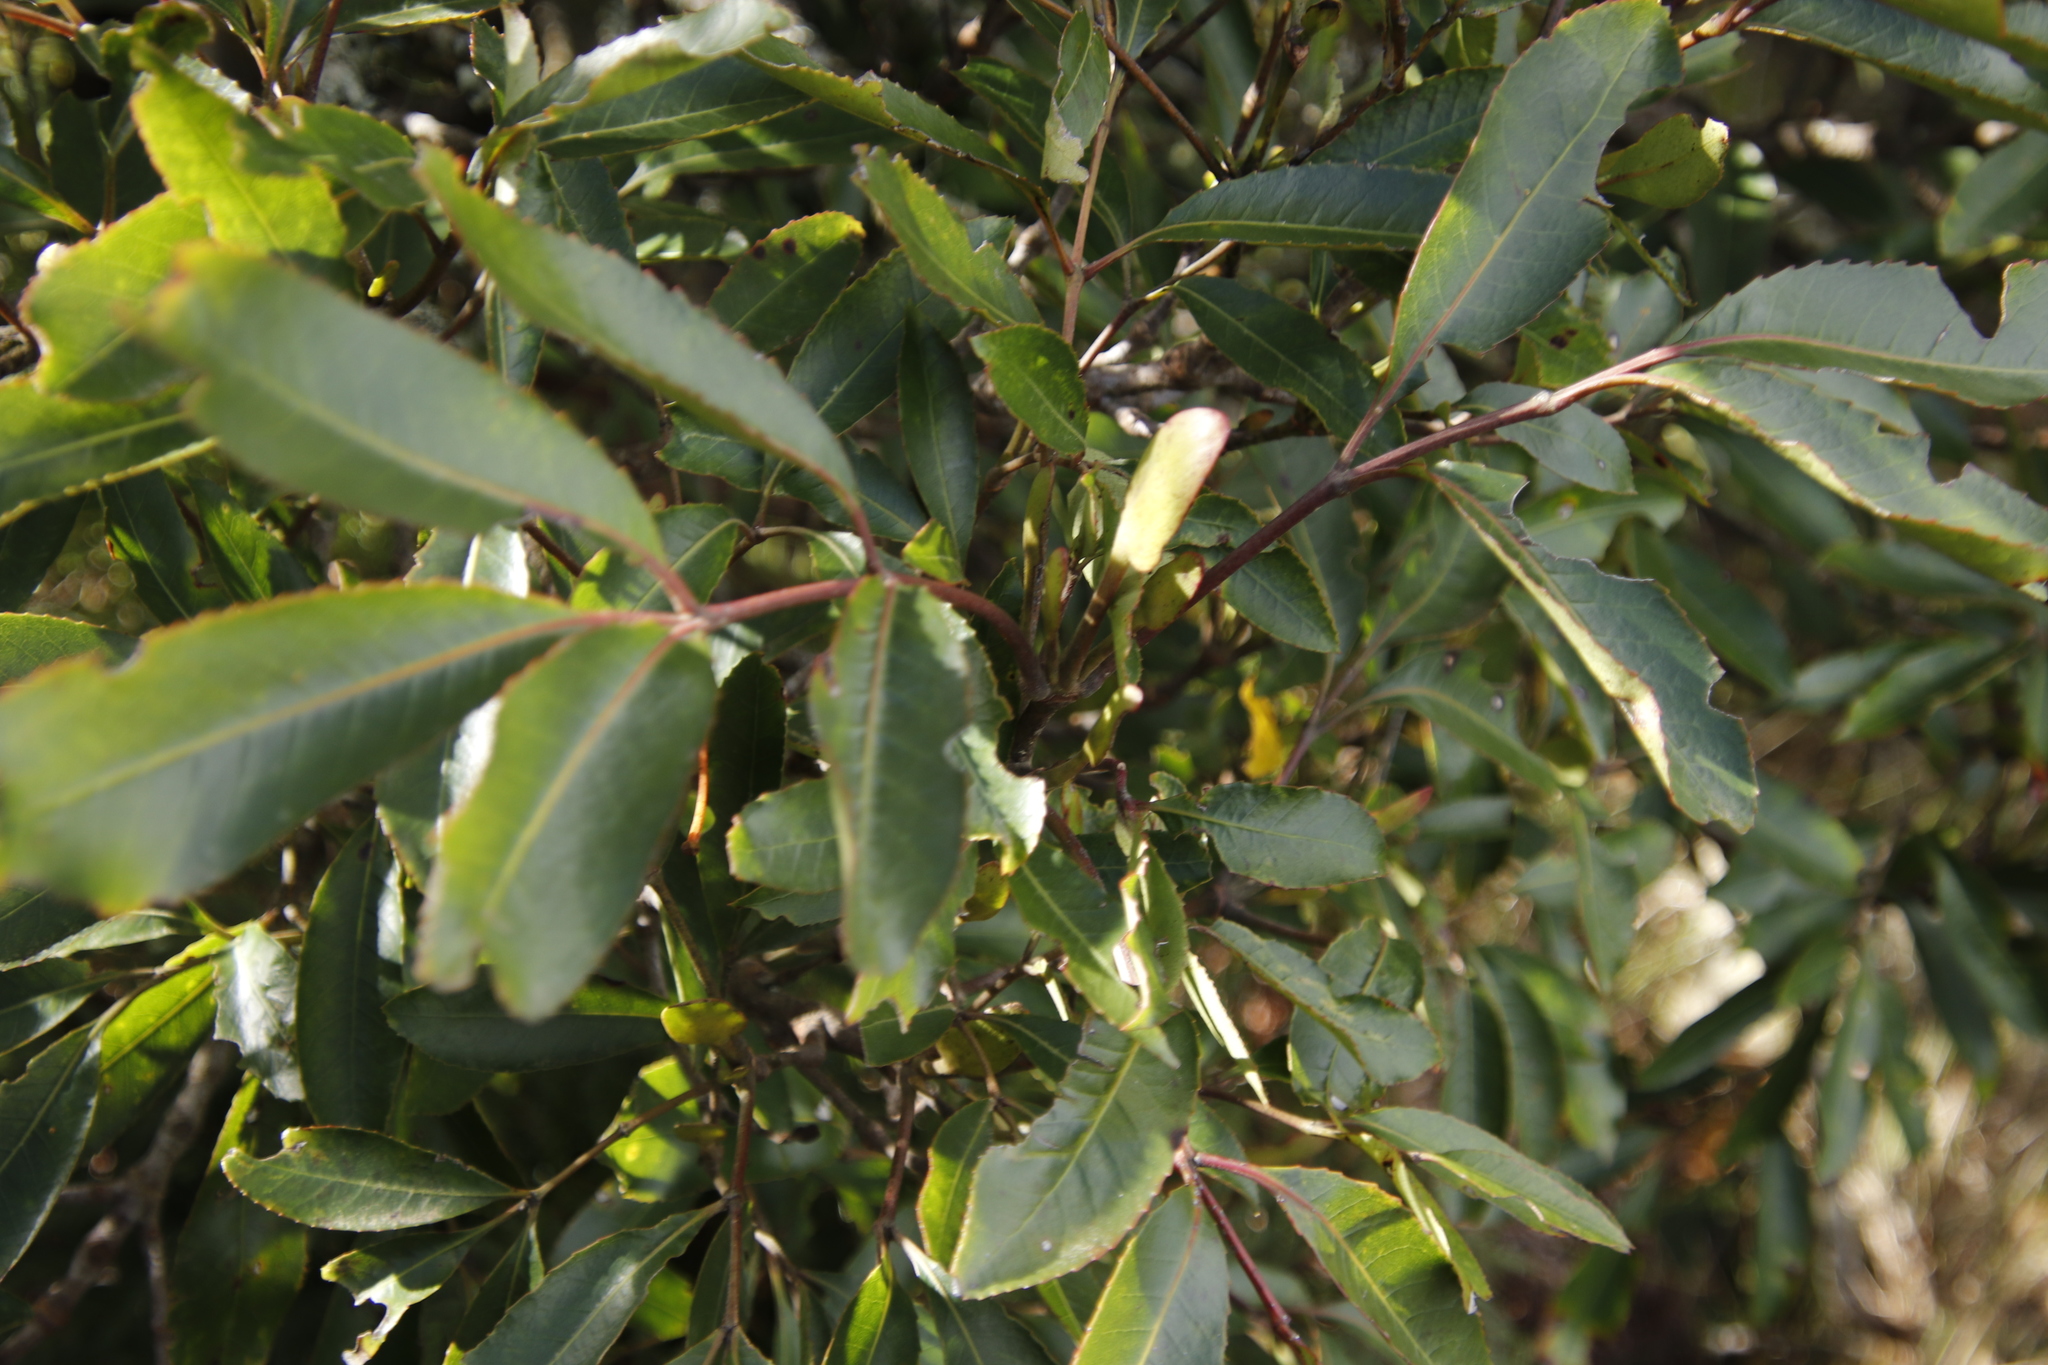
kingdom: Plantae
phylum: Tracheophyta
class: Magnoliopsida
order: Oxalidales
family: Cunoniaceae
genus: Cunonia
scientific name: Cunonia capensis
